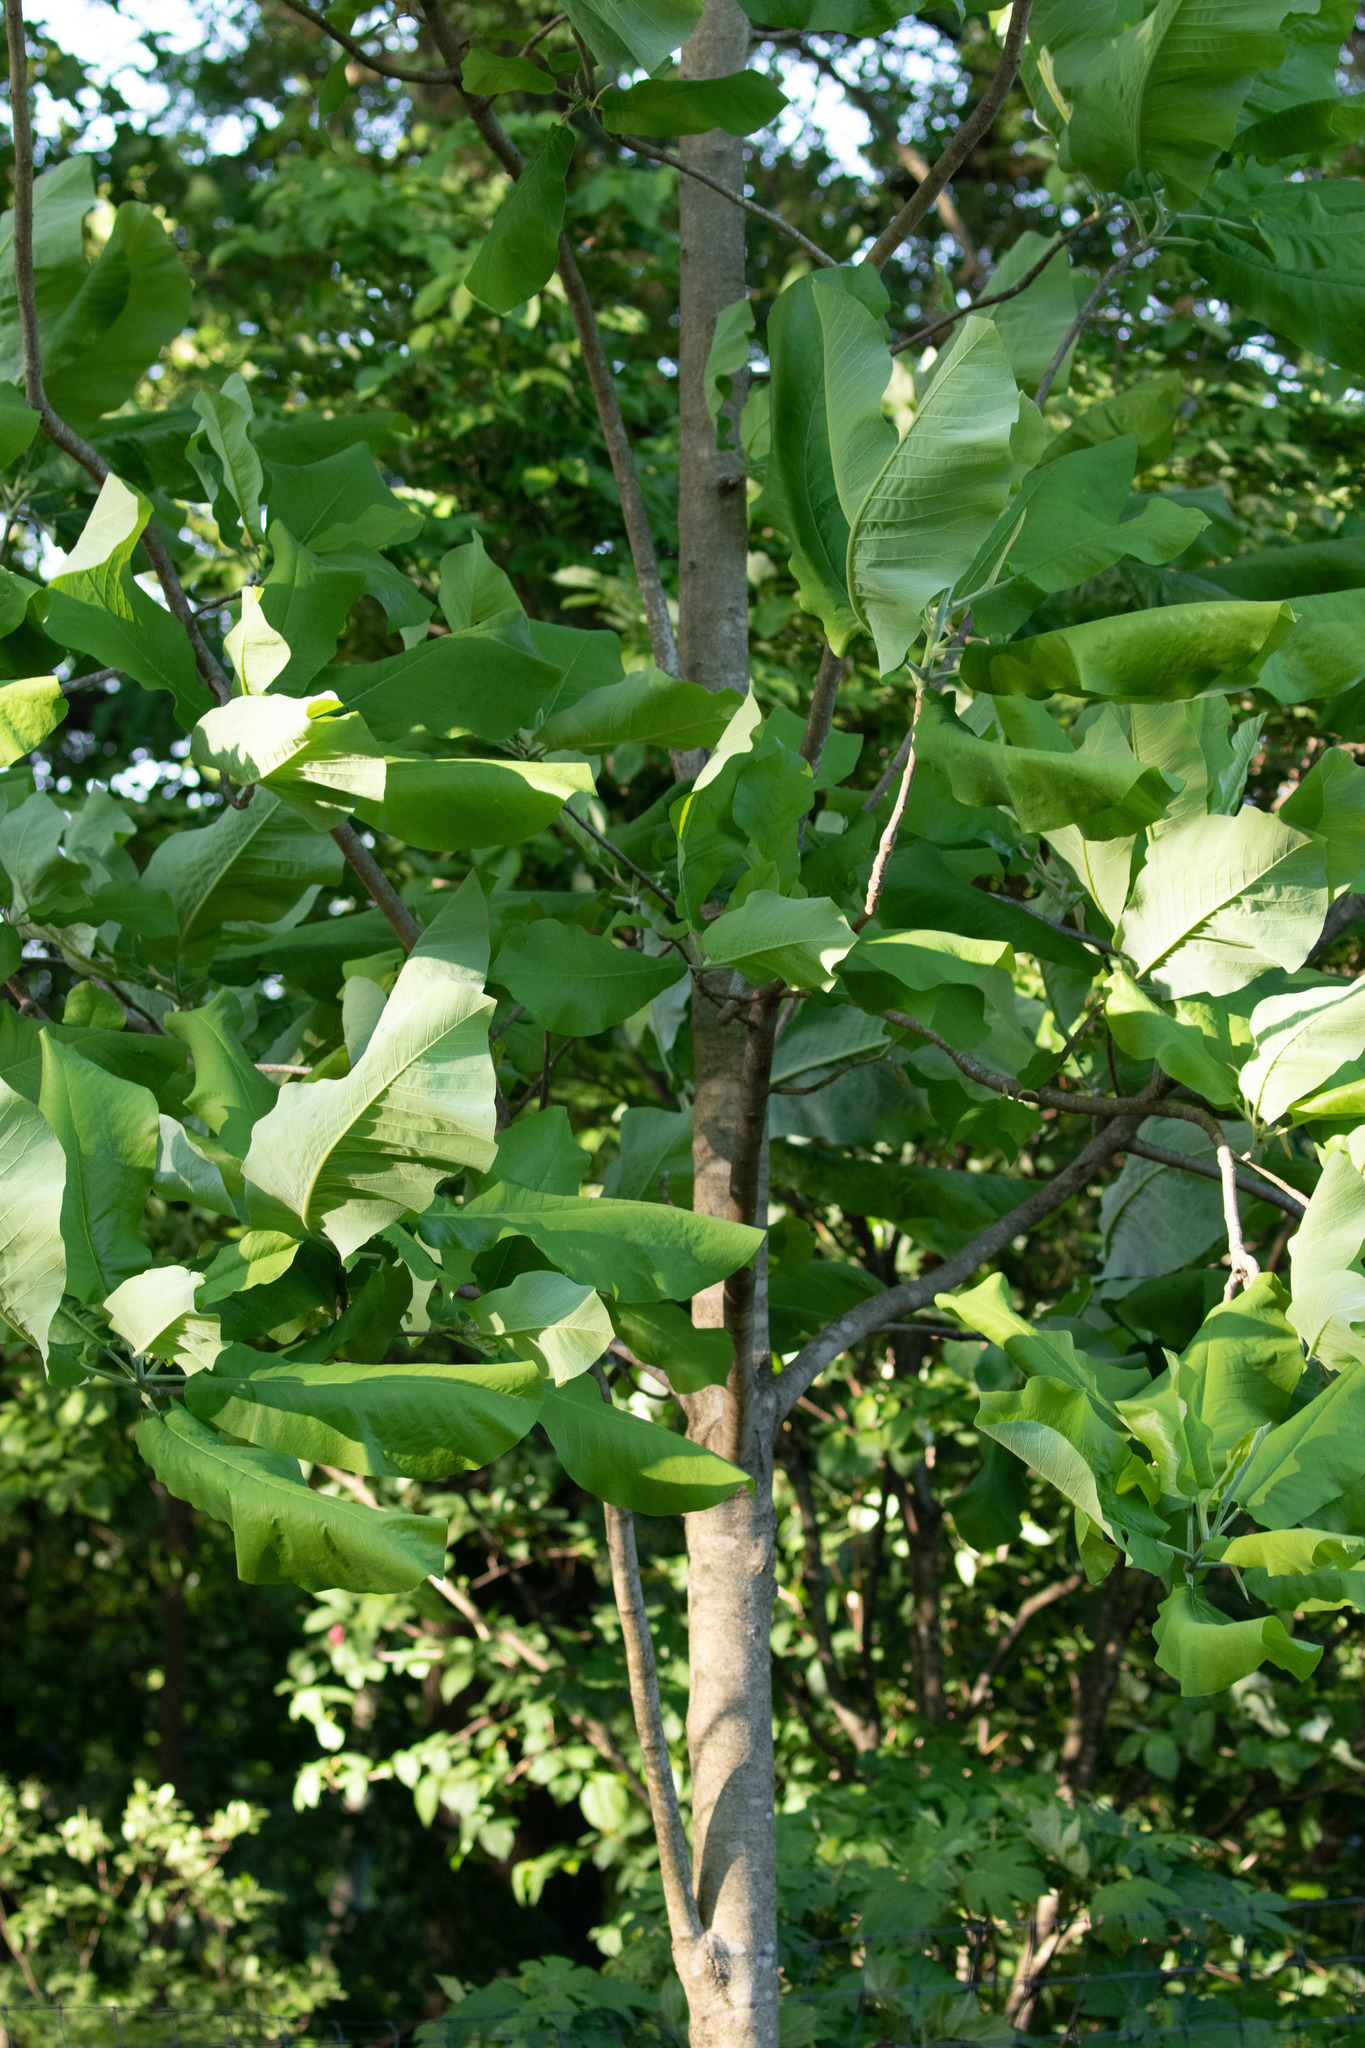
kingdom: Plantae
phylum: Tracheophyta
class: Magnoliopsida
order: Magnoliales
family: Magnoliaceae
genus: Magnolia
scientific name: Magnolia macrophylla
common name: Big-leaf magnolia
